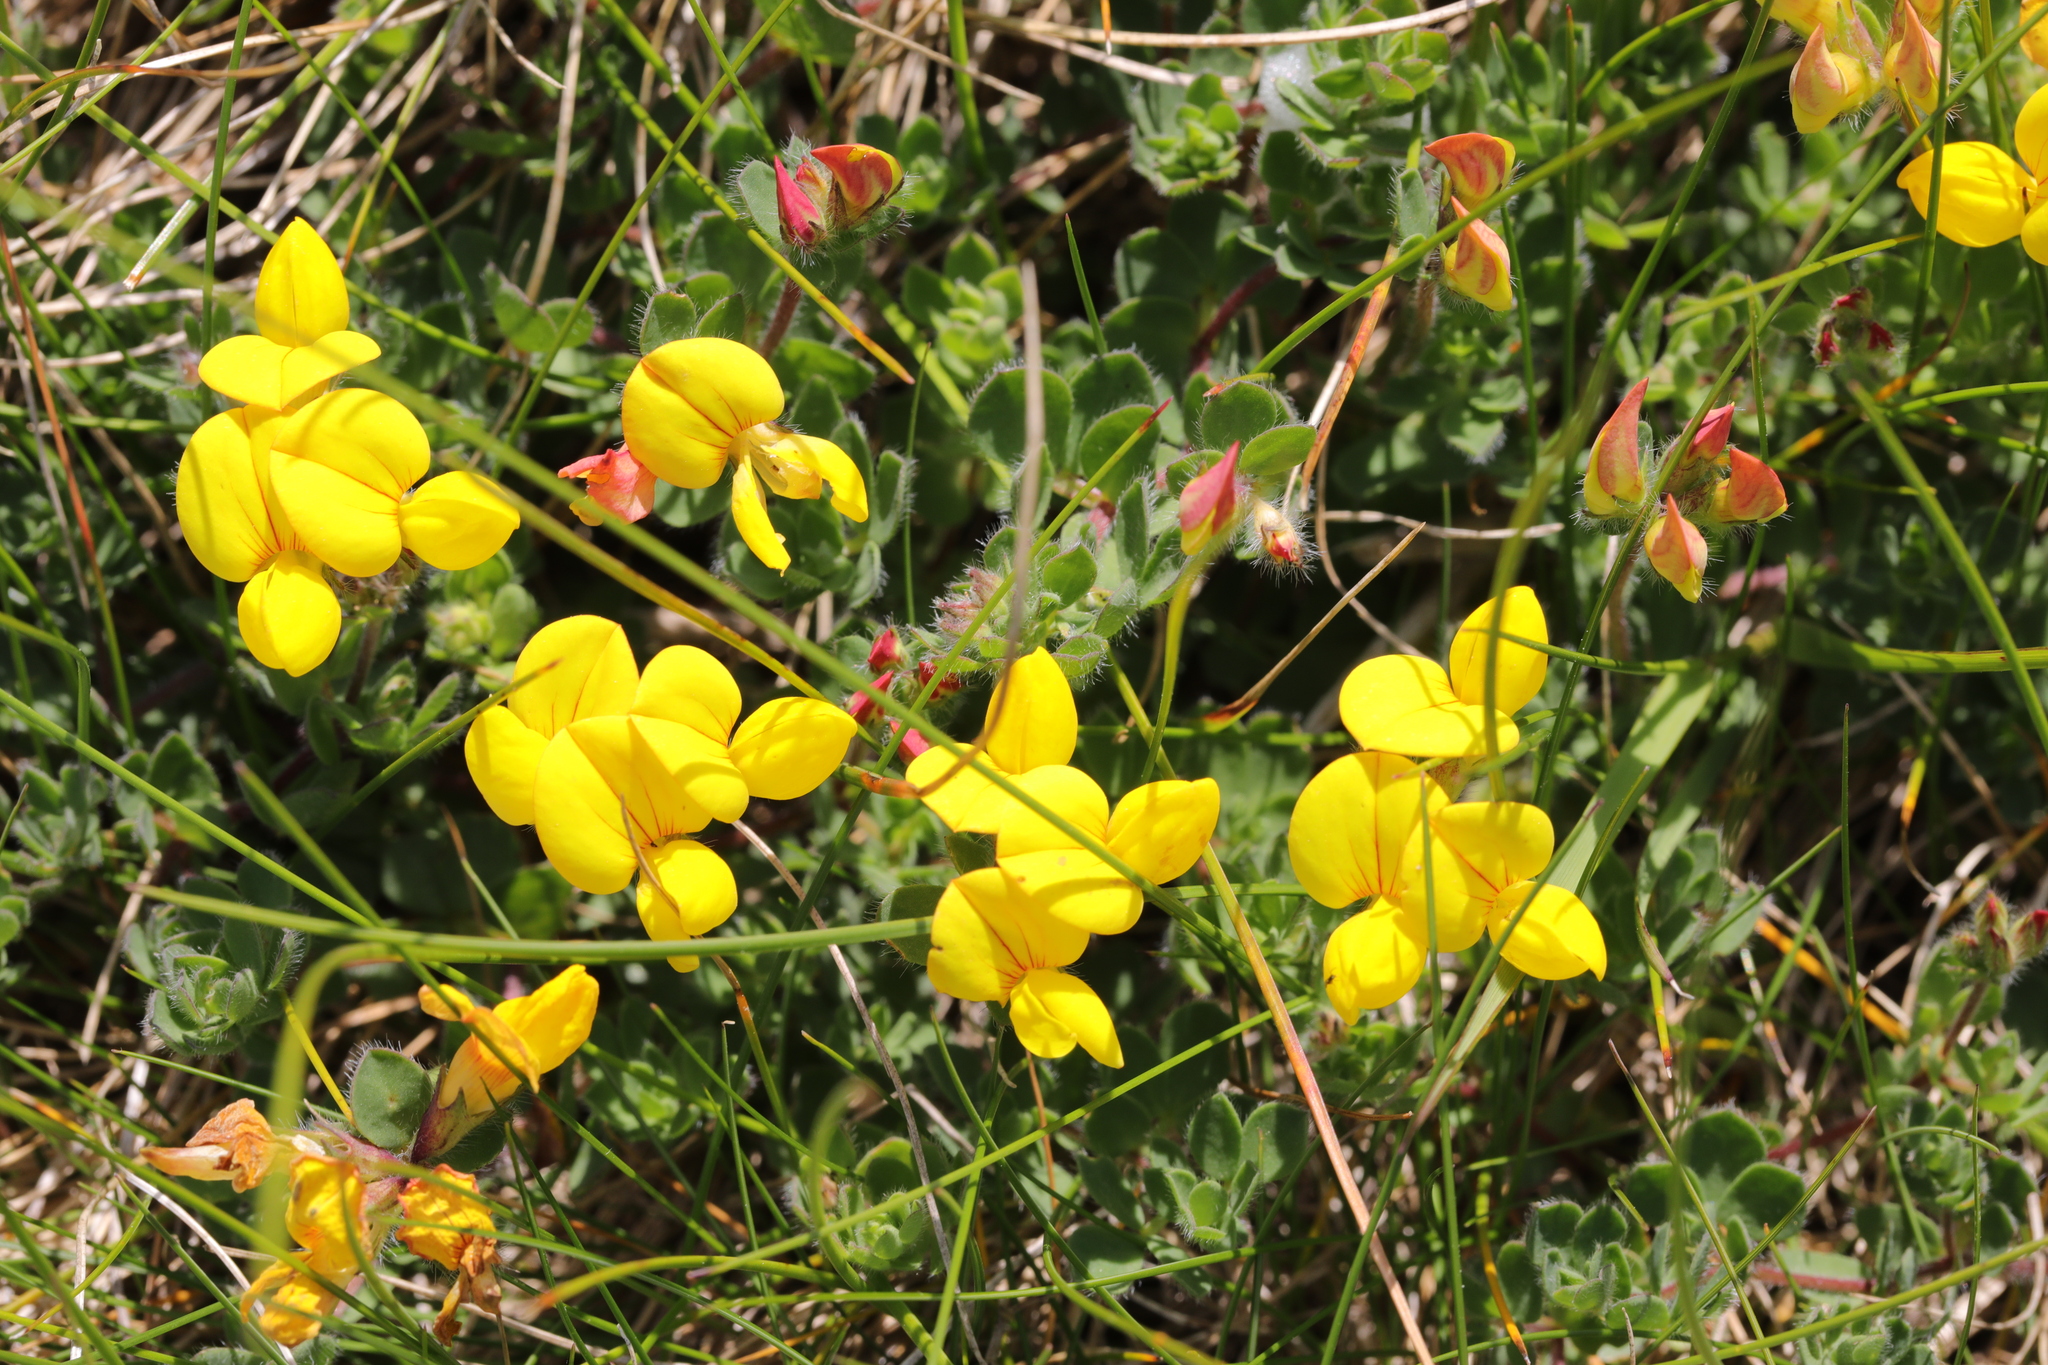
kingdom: Plantae
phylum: Tracheophyta
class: Magnoliopsida
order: Fabales
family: Fabaceae
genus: Lotus
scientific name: Lotus corniculatus
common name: Common bird's-foot-trefoil
